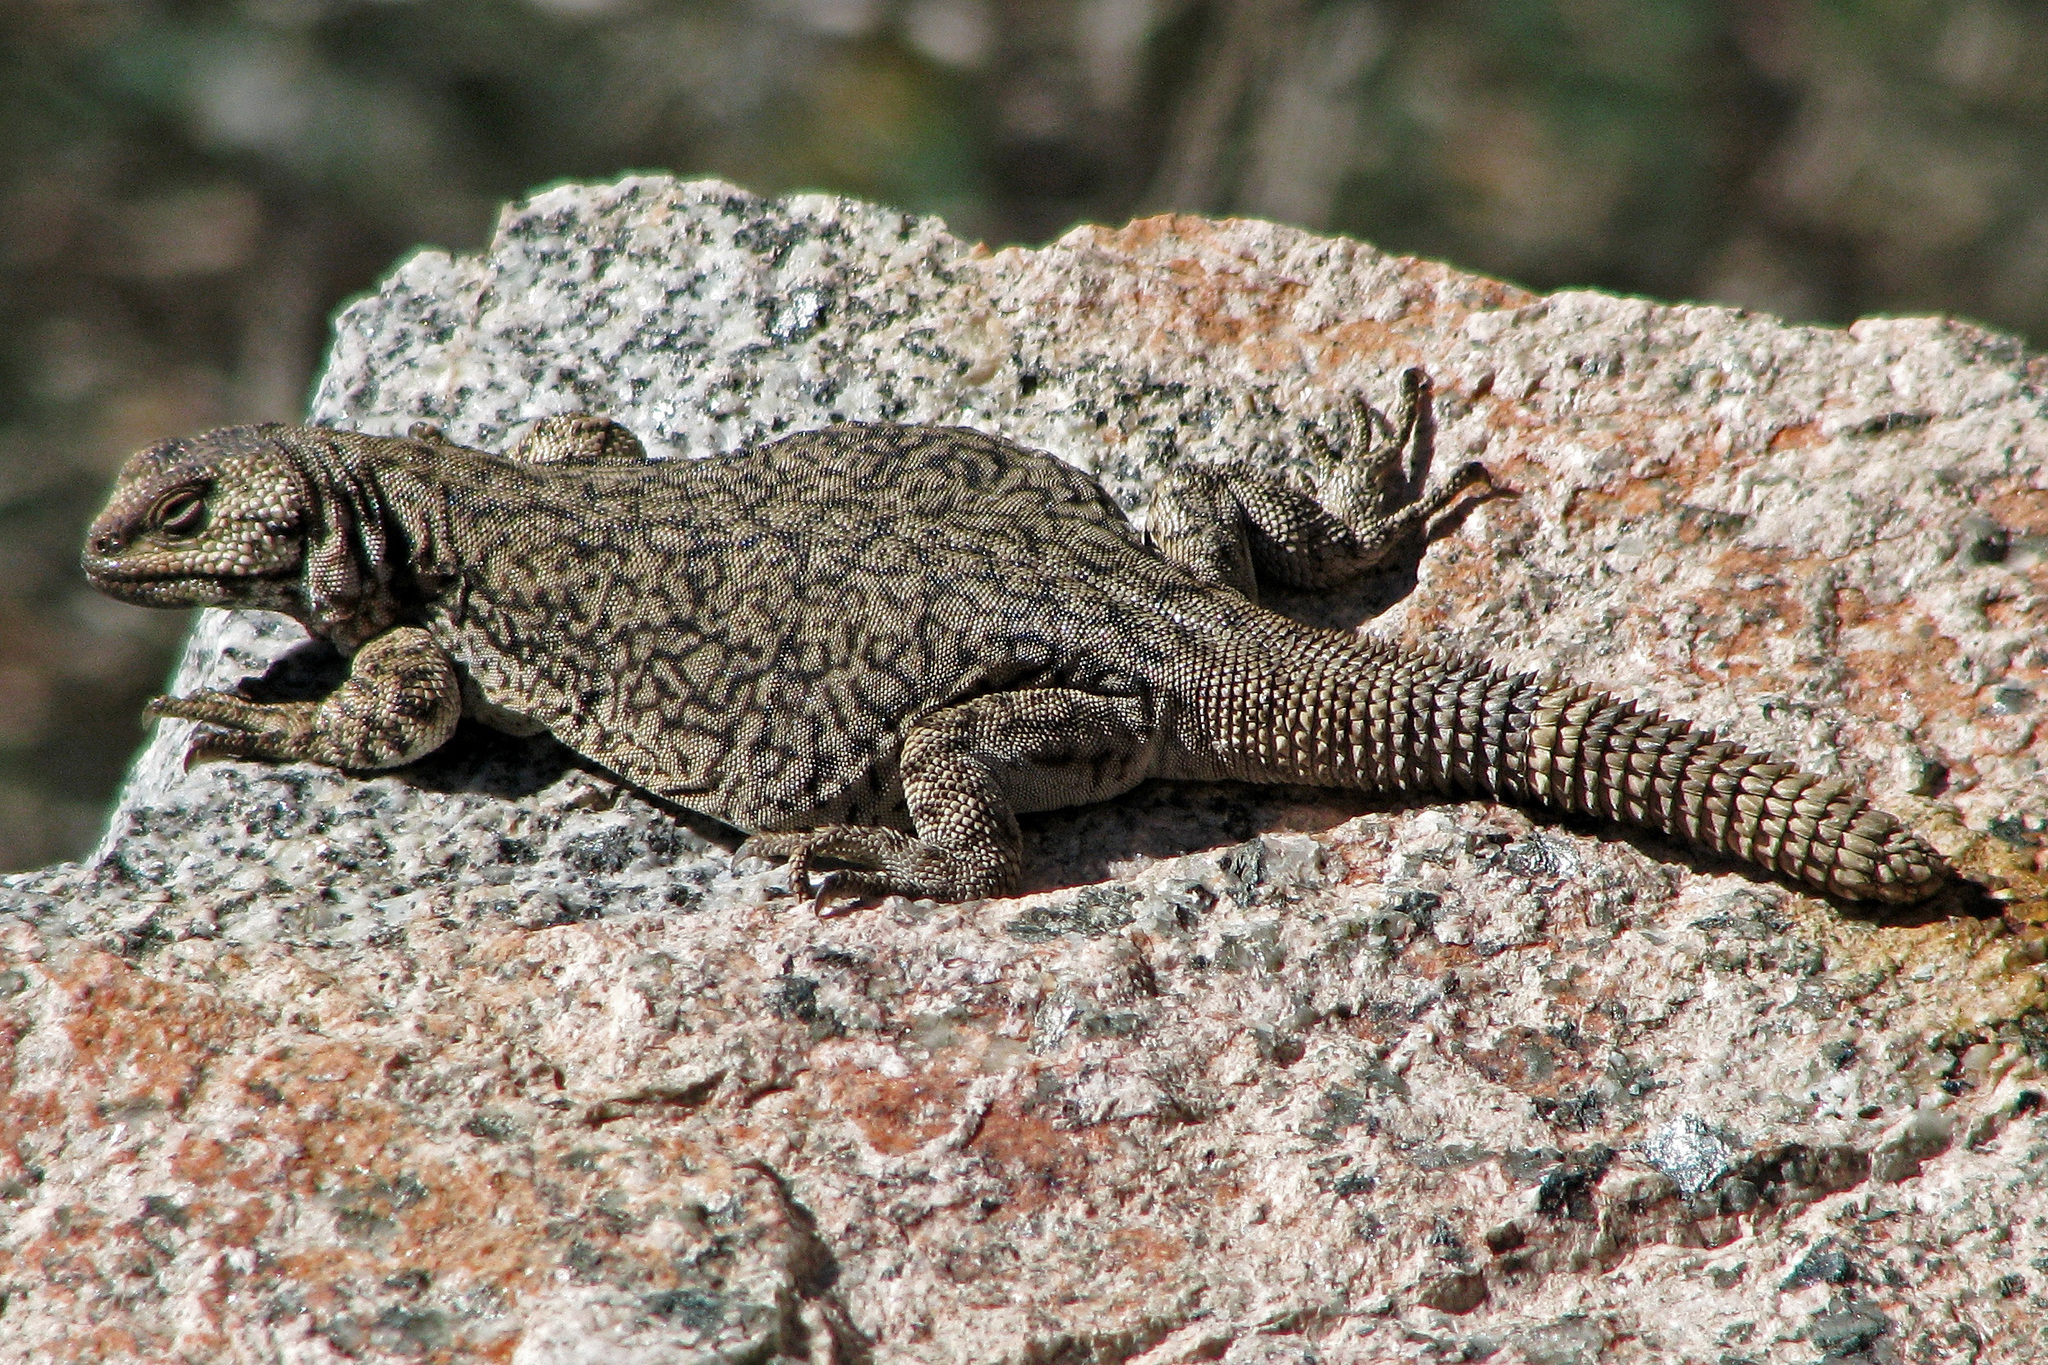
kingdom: Animalia
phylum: Chordata
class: Squamata
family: Liolaemidae
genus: Phymaturus
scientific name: Phymaturus palluma
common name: High mountain lizard
